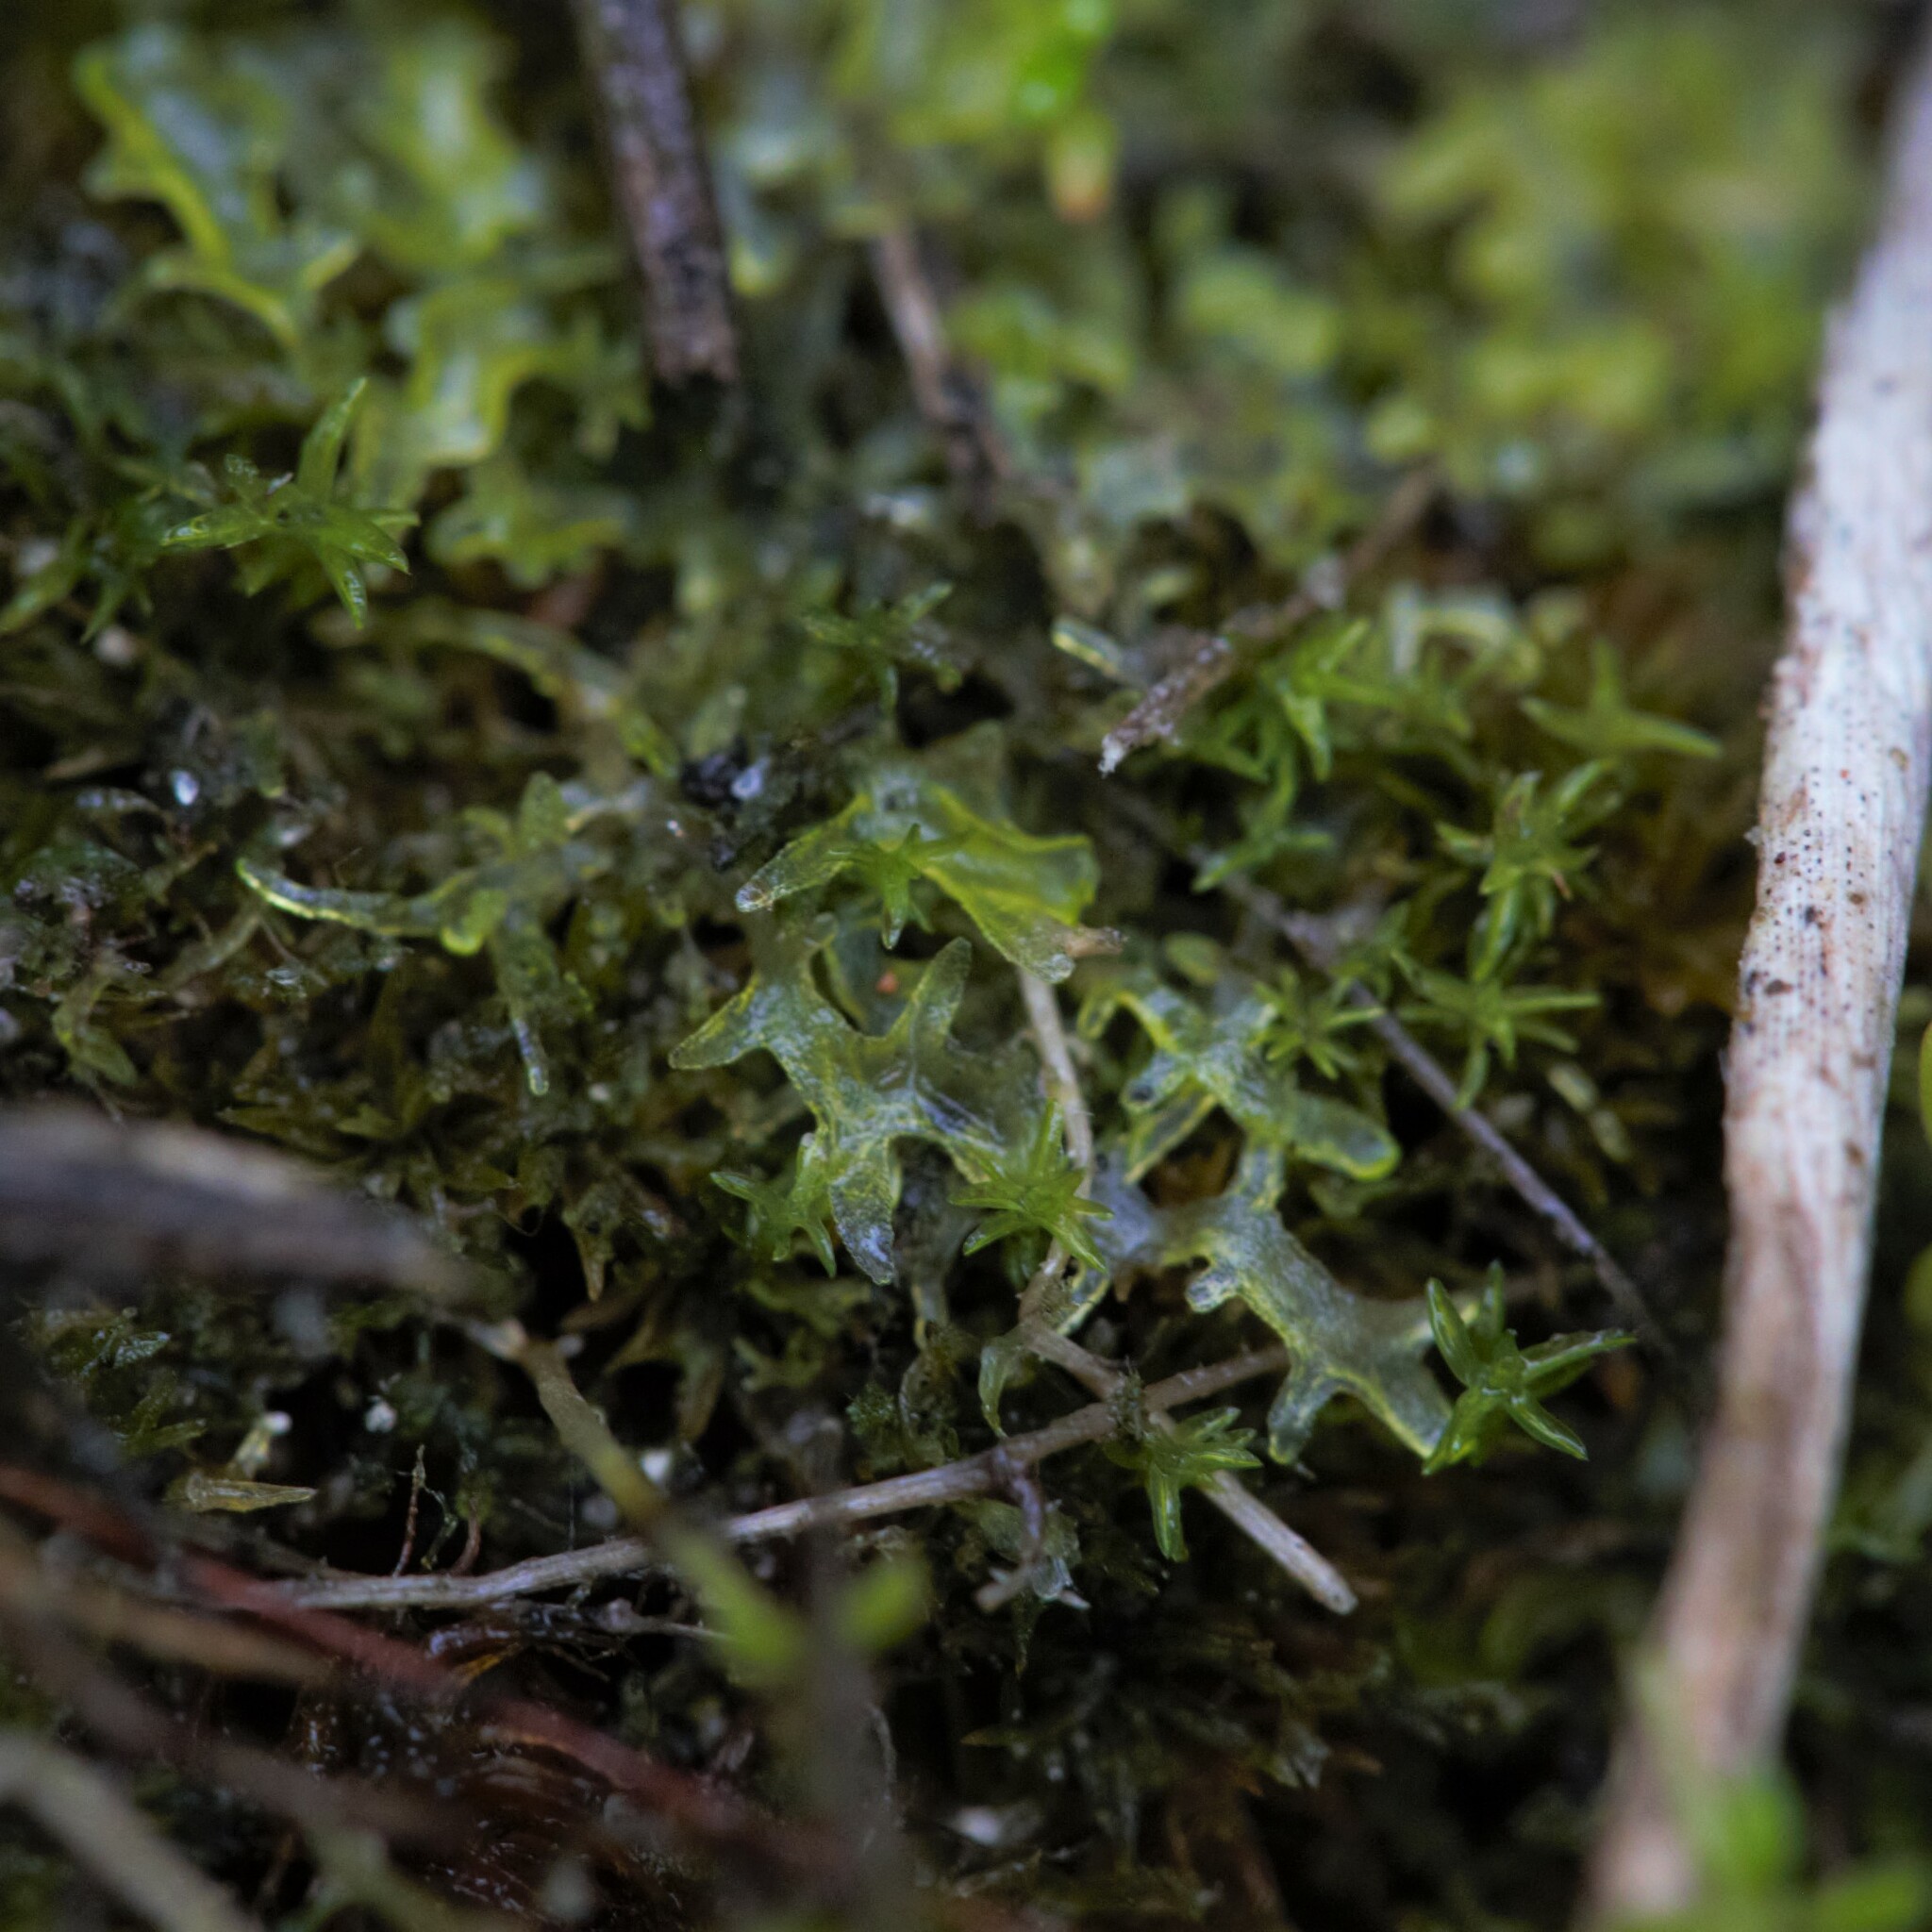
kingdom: Plantae
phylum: Marchantiophyta
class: Jungermanniopsida
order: Metzgeriales
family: Aneuraceae
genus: Riccardia
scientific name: Riccardia aequicellularis
